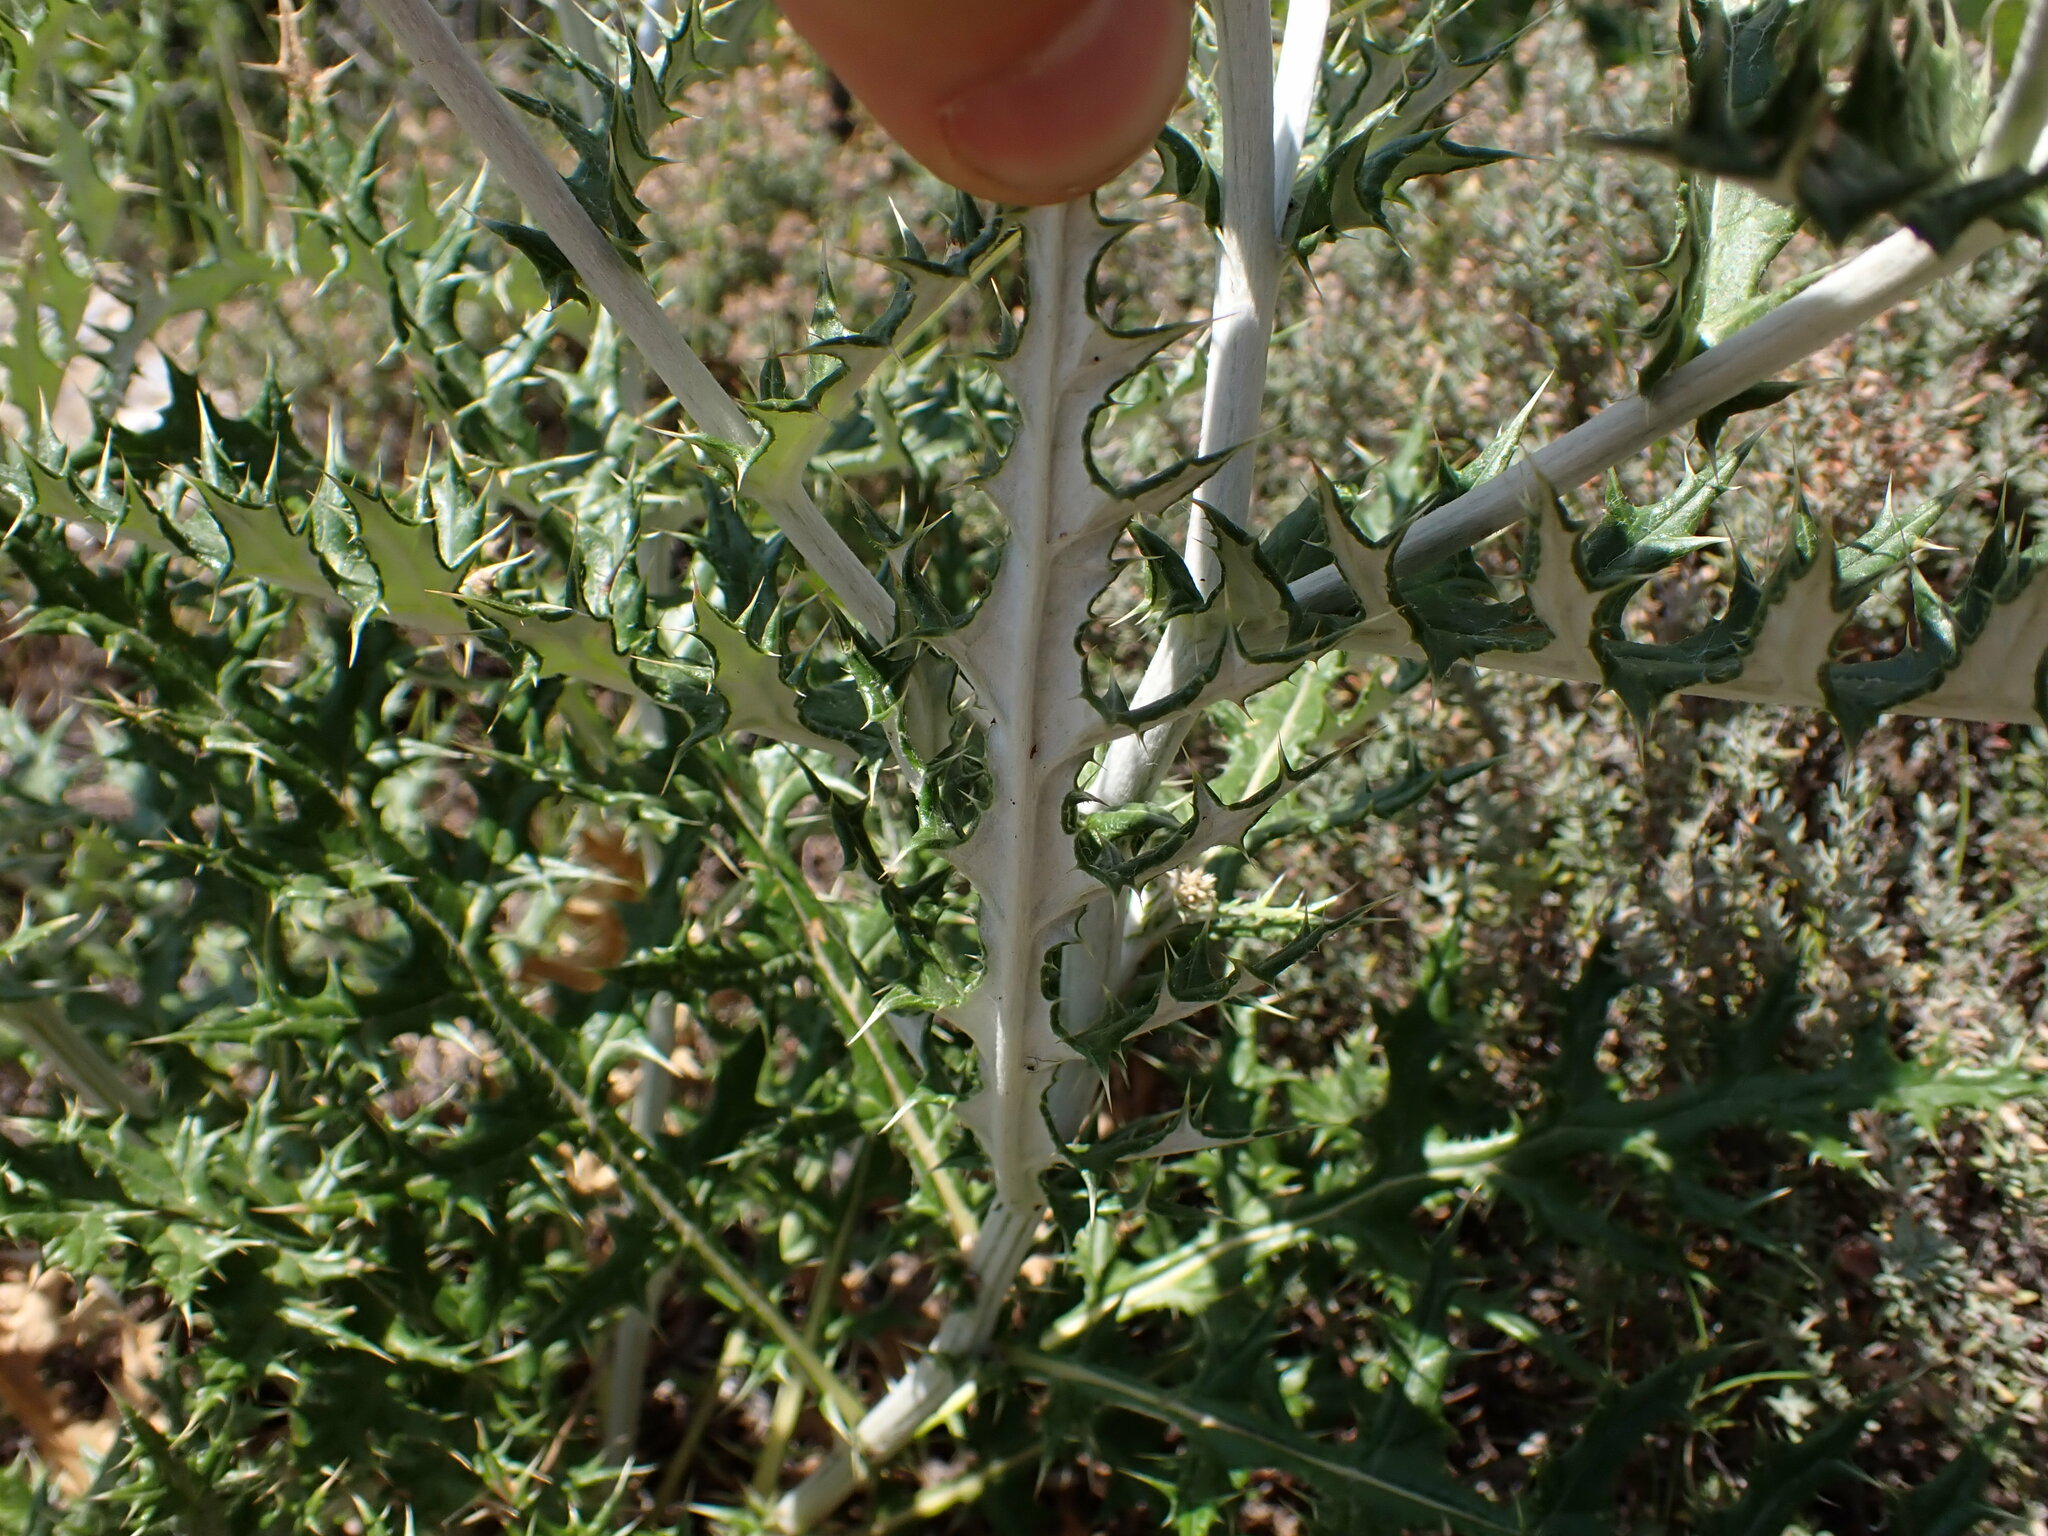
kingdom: Plantae
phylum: Tracheophyta
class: Magnoliopsida
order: Asterales
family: Asteraceae
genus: Echinops
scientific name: Echinops ritro
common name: Globe thistle
